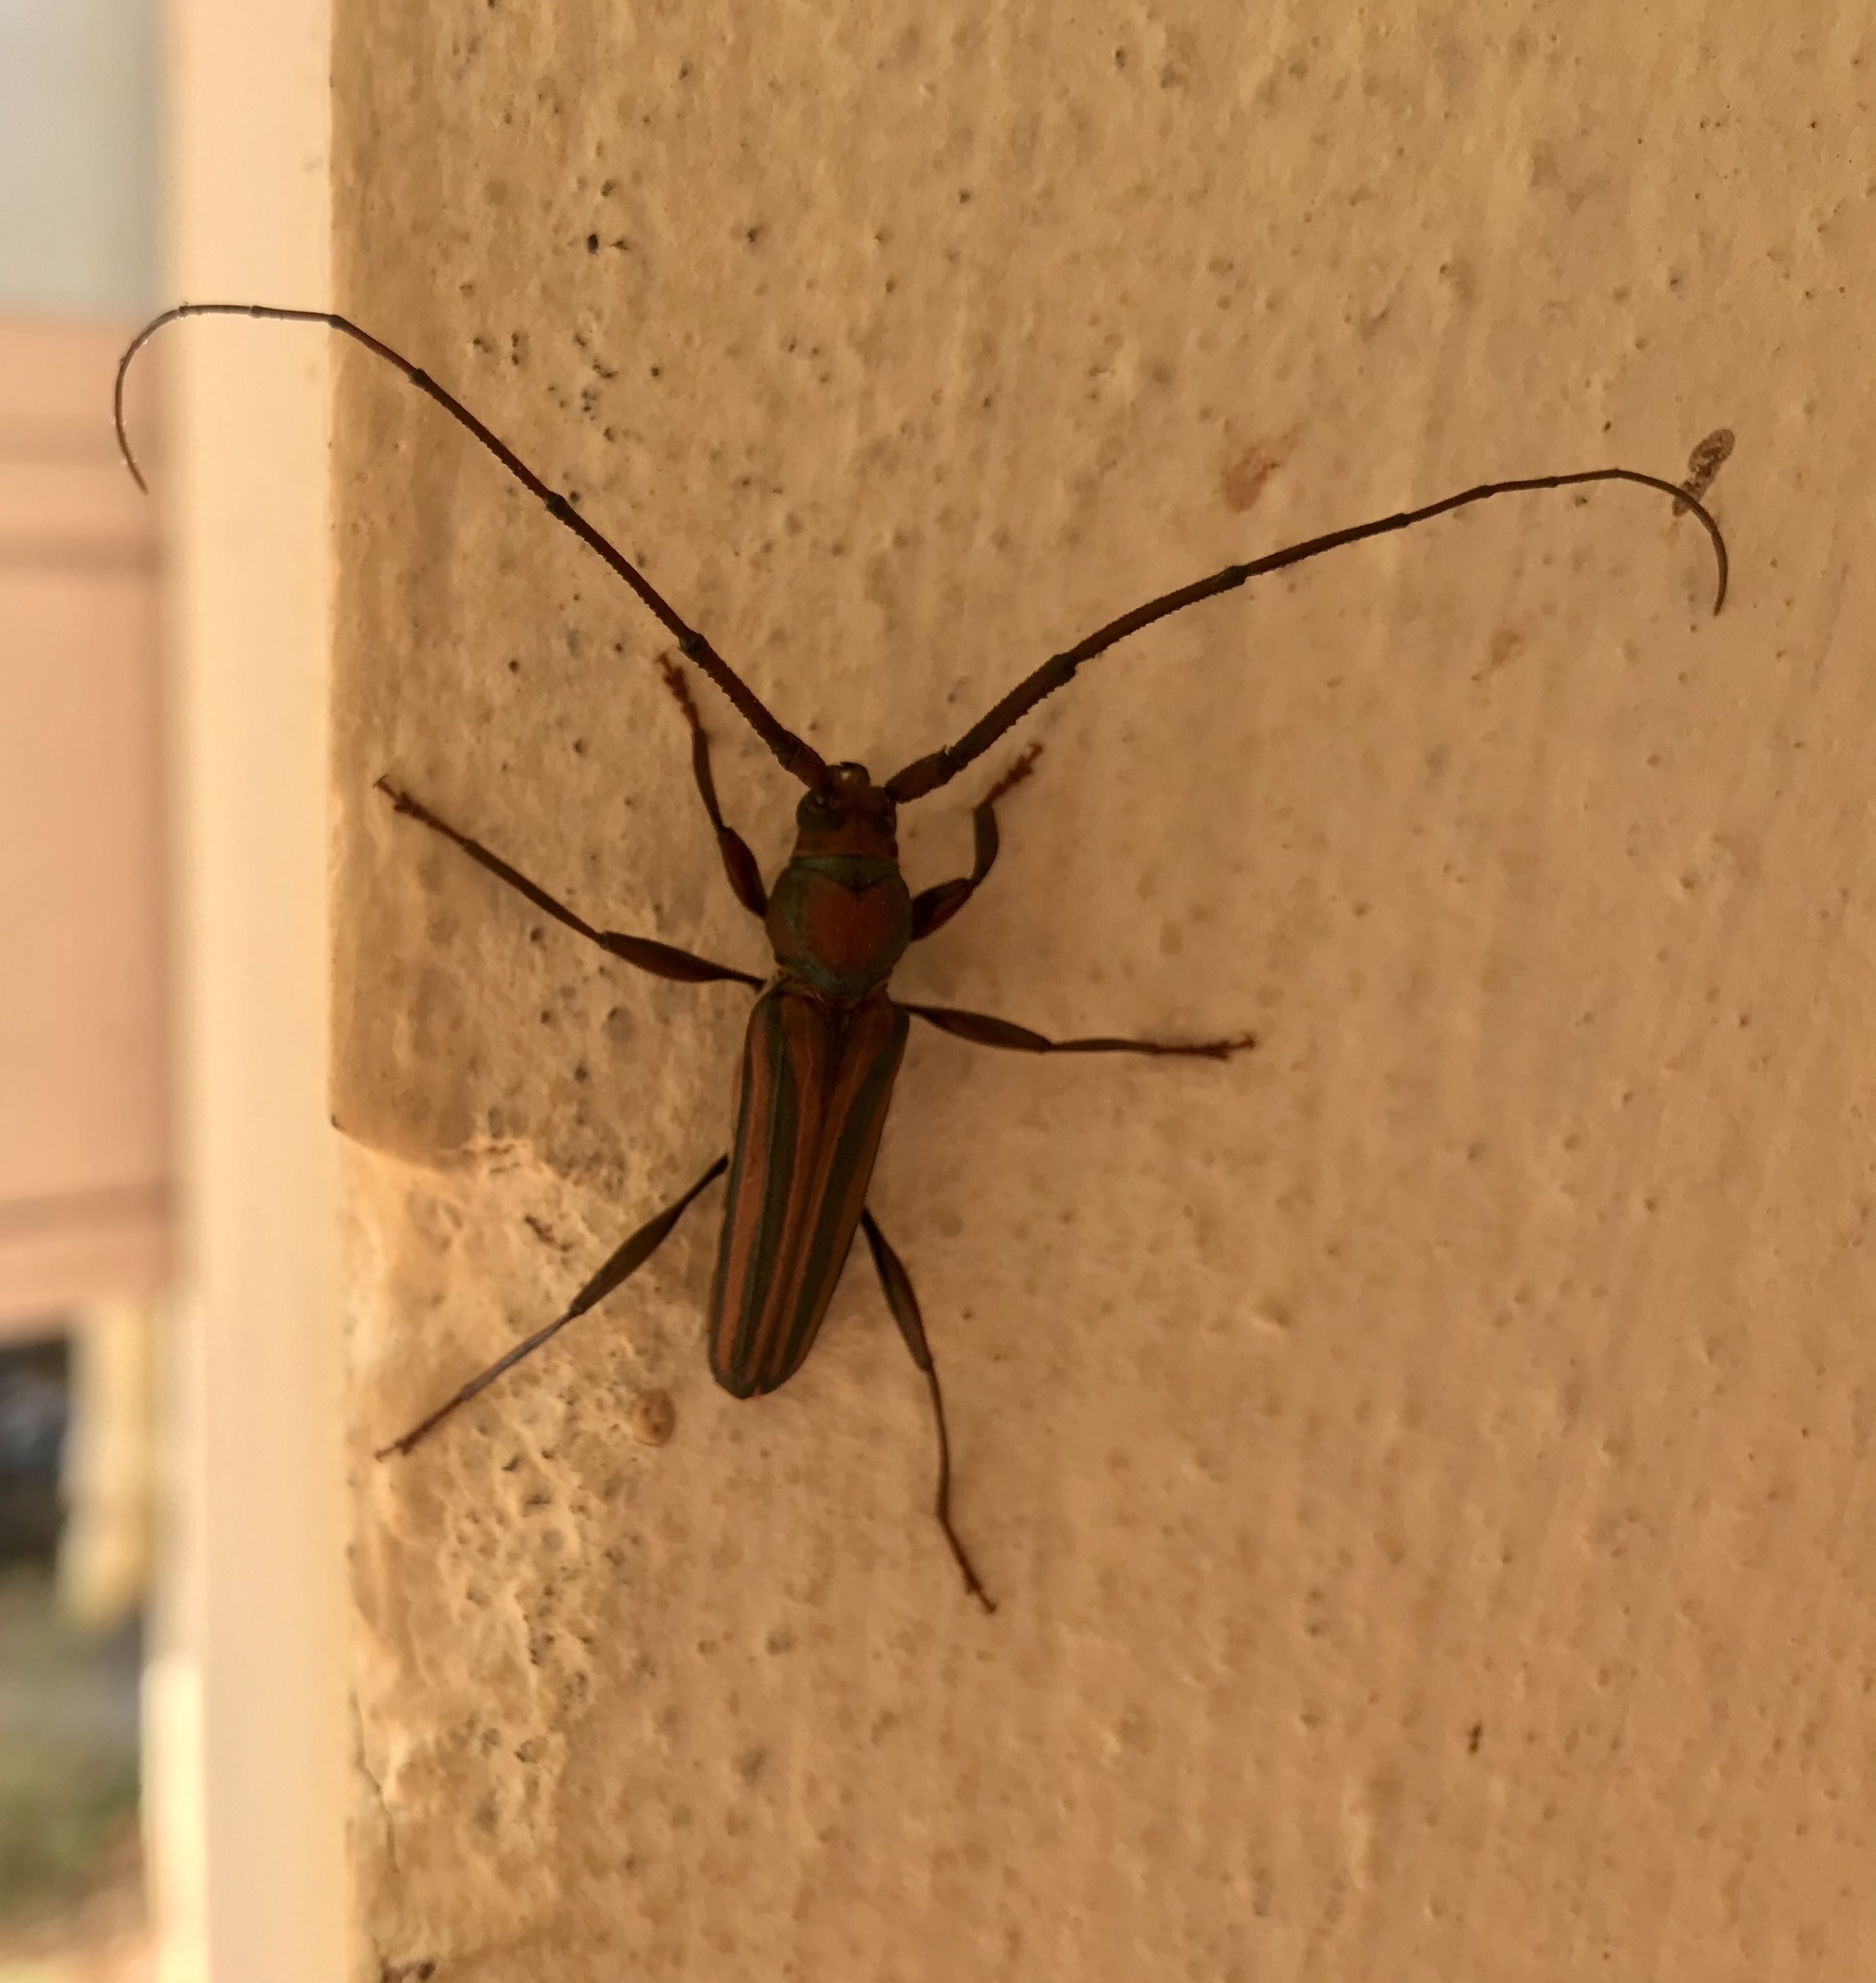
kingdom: Animalia
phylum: Arthropoda
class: Insecta
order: Coleoptera
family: Cerambycidae
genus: Xystrocera
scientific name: Xystrocera globosa
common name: Peach-tree longhorn
